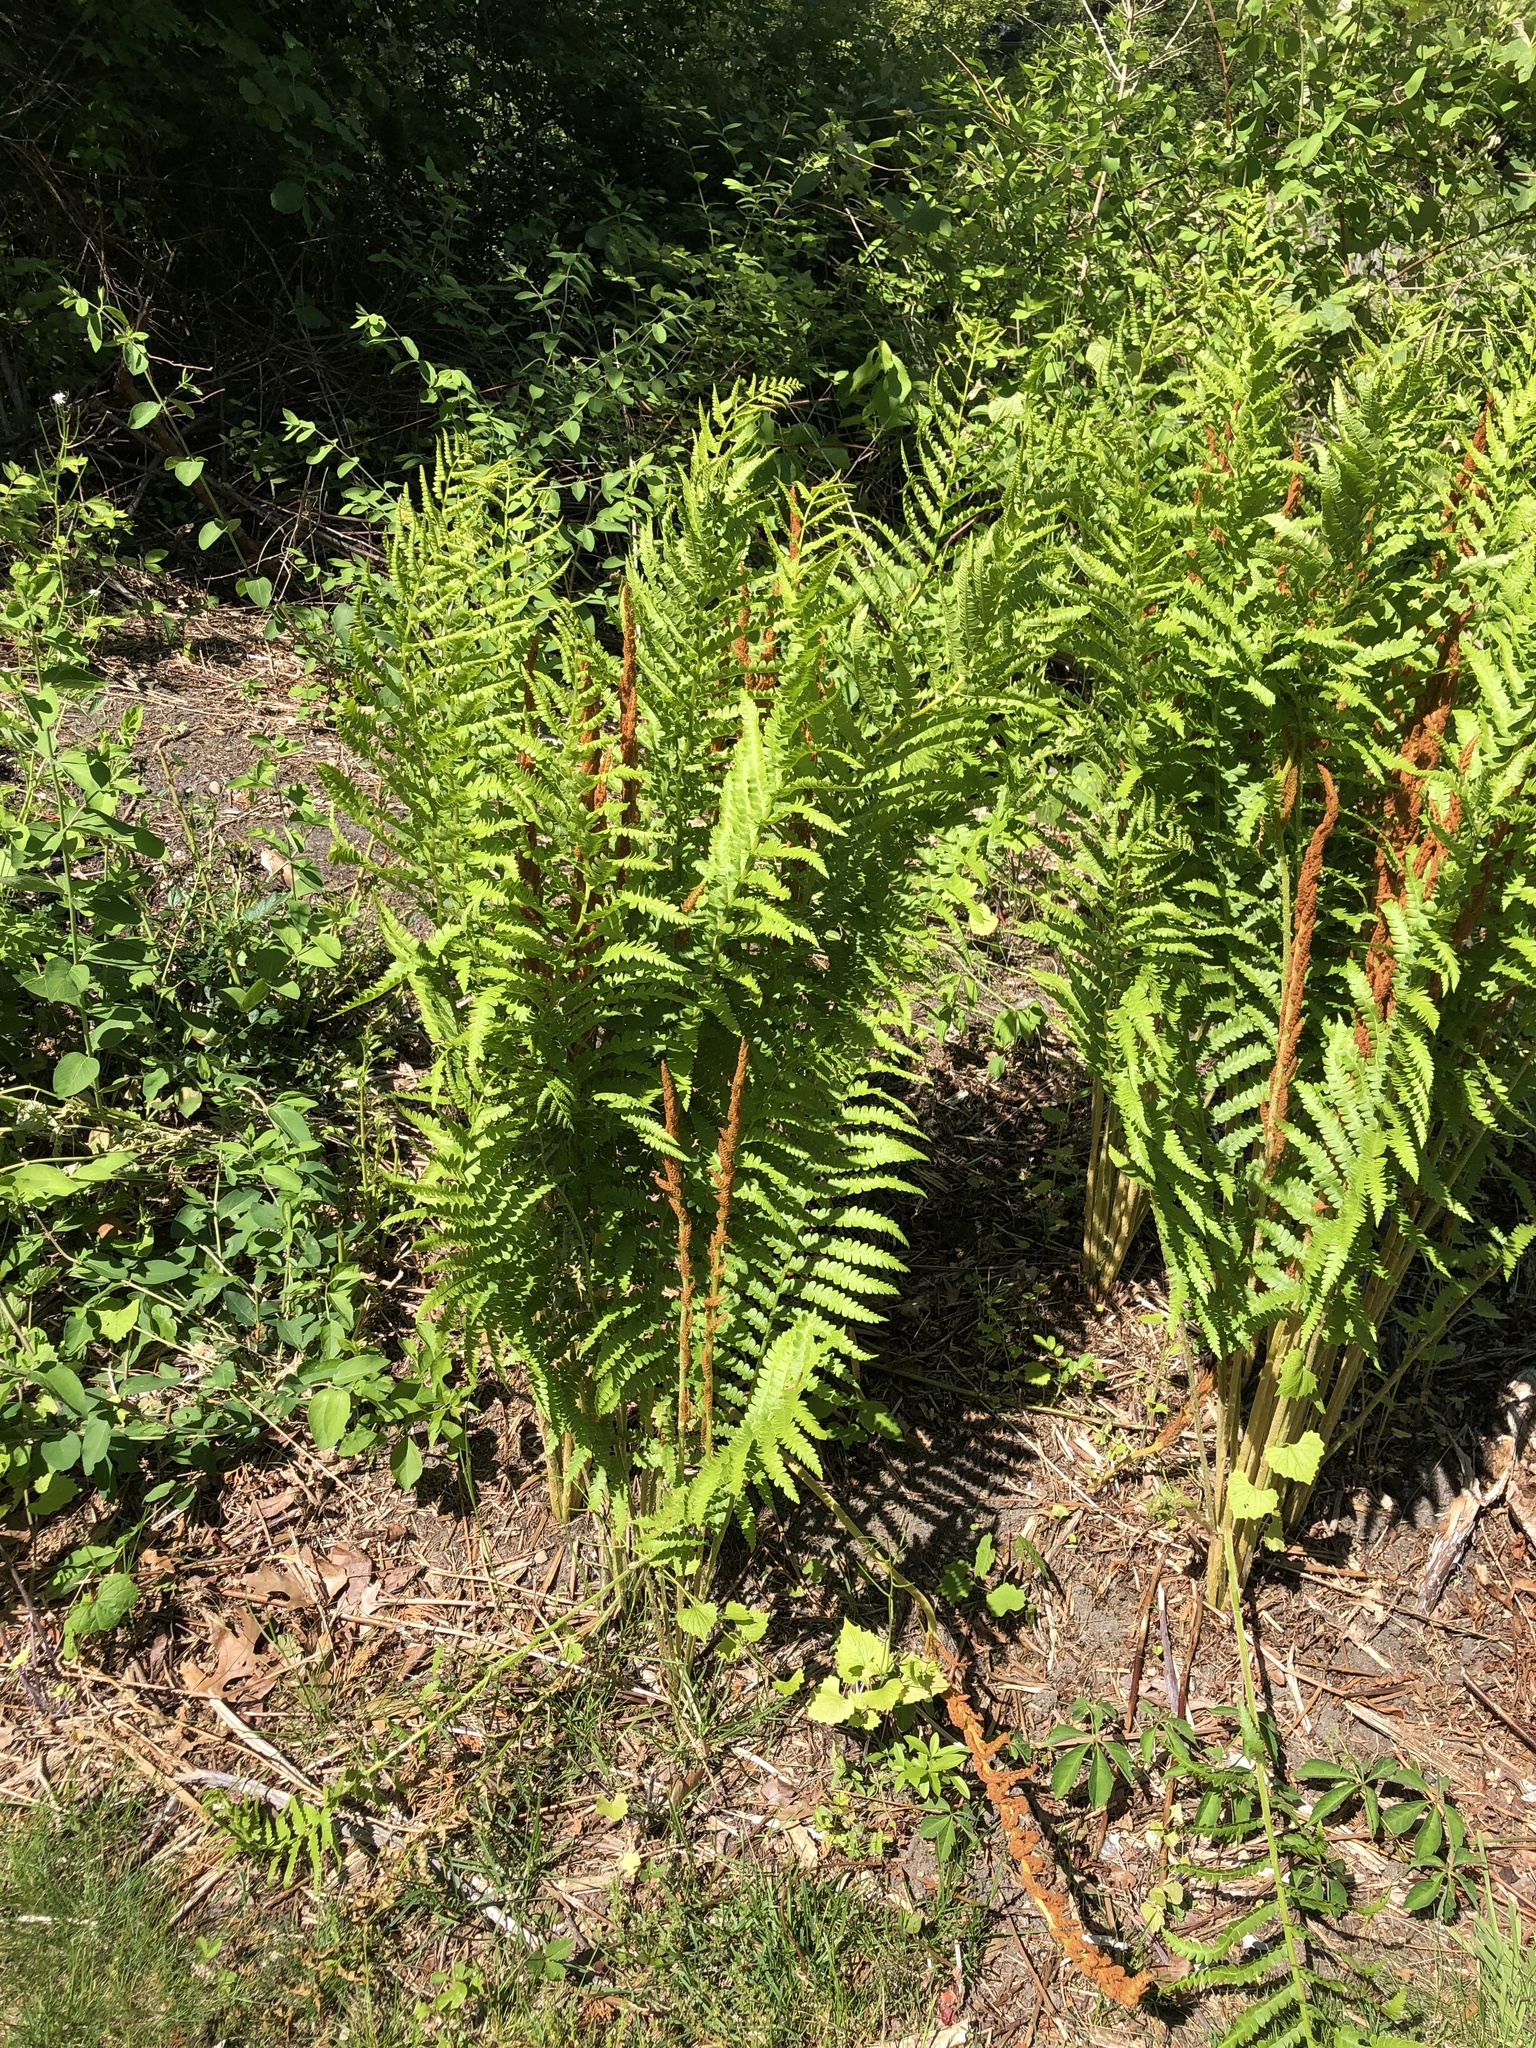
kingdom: Plantae
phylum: Tracheophyta
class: Polypodiopsida
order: Osmundales
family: Osmundaceae
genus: Osmundastrum
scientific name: Osmundastrum cinnamomeum
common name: Cinnamon fern
